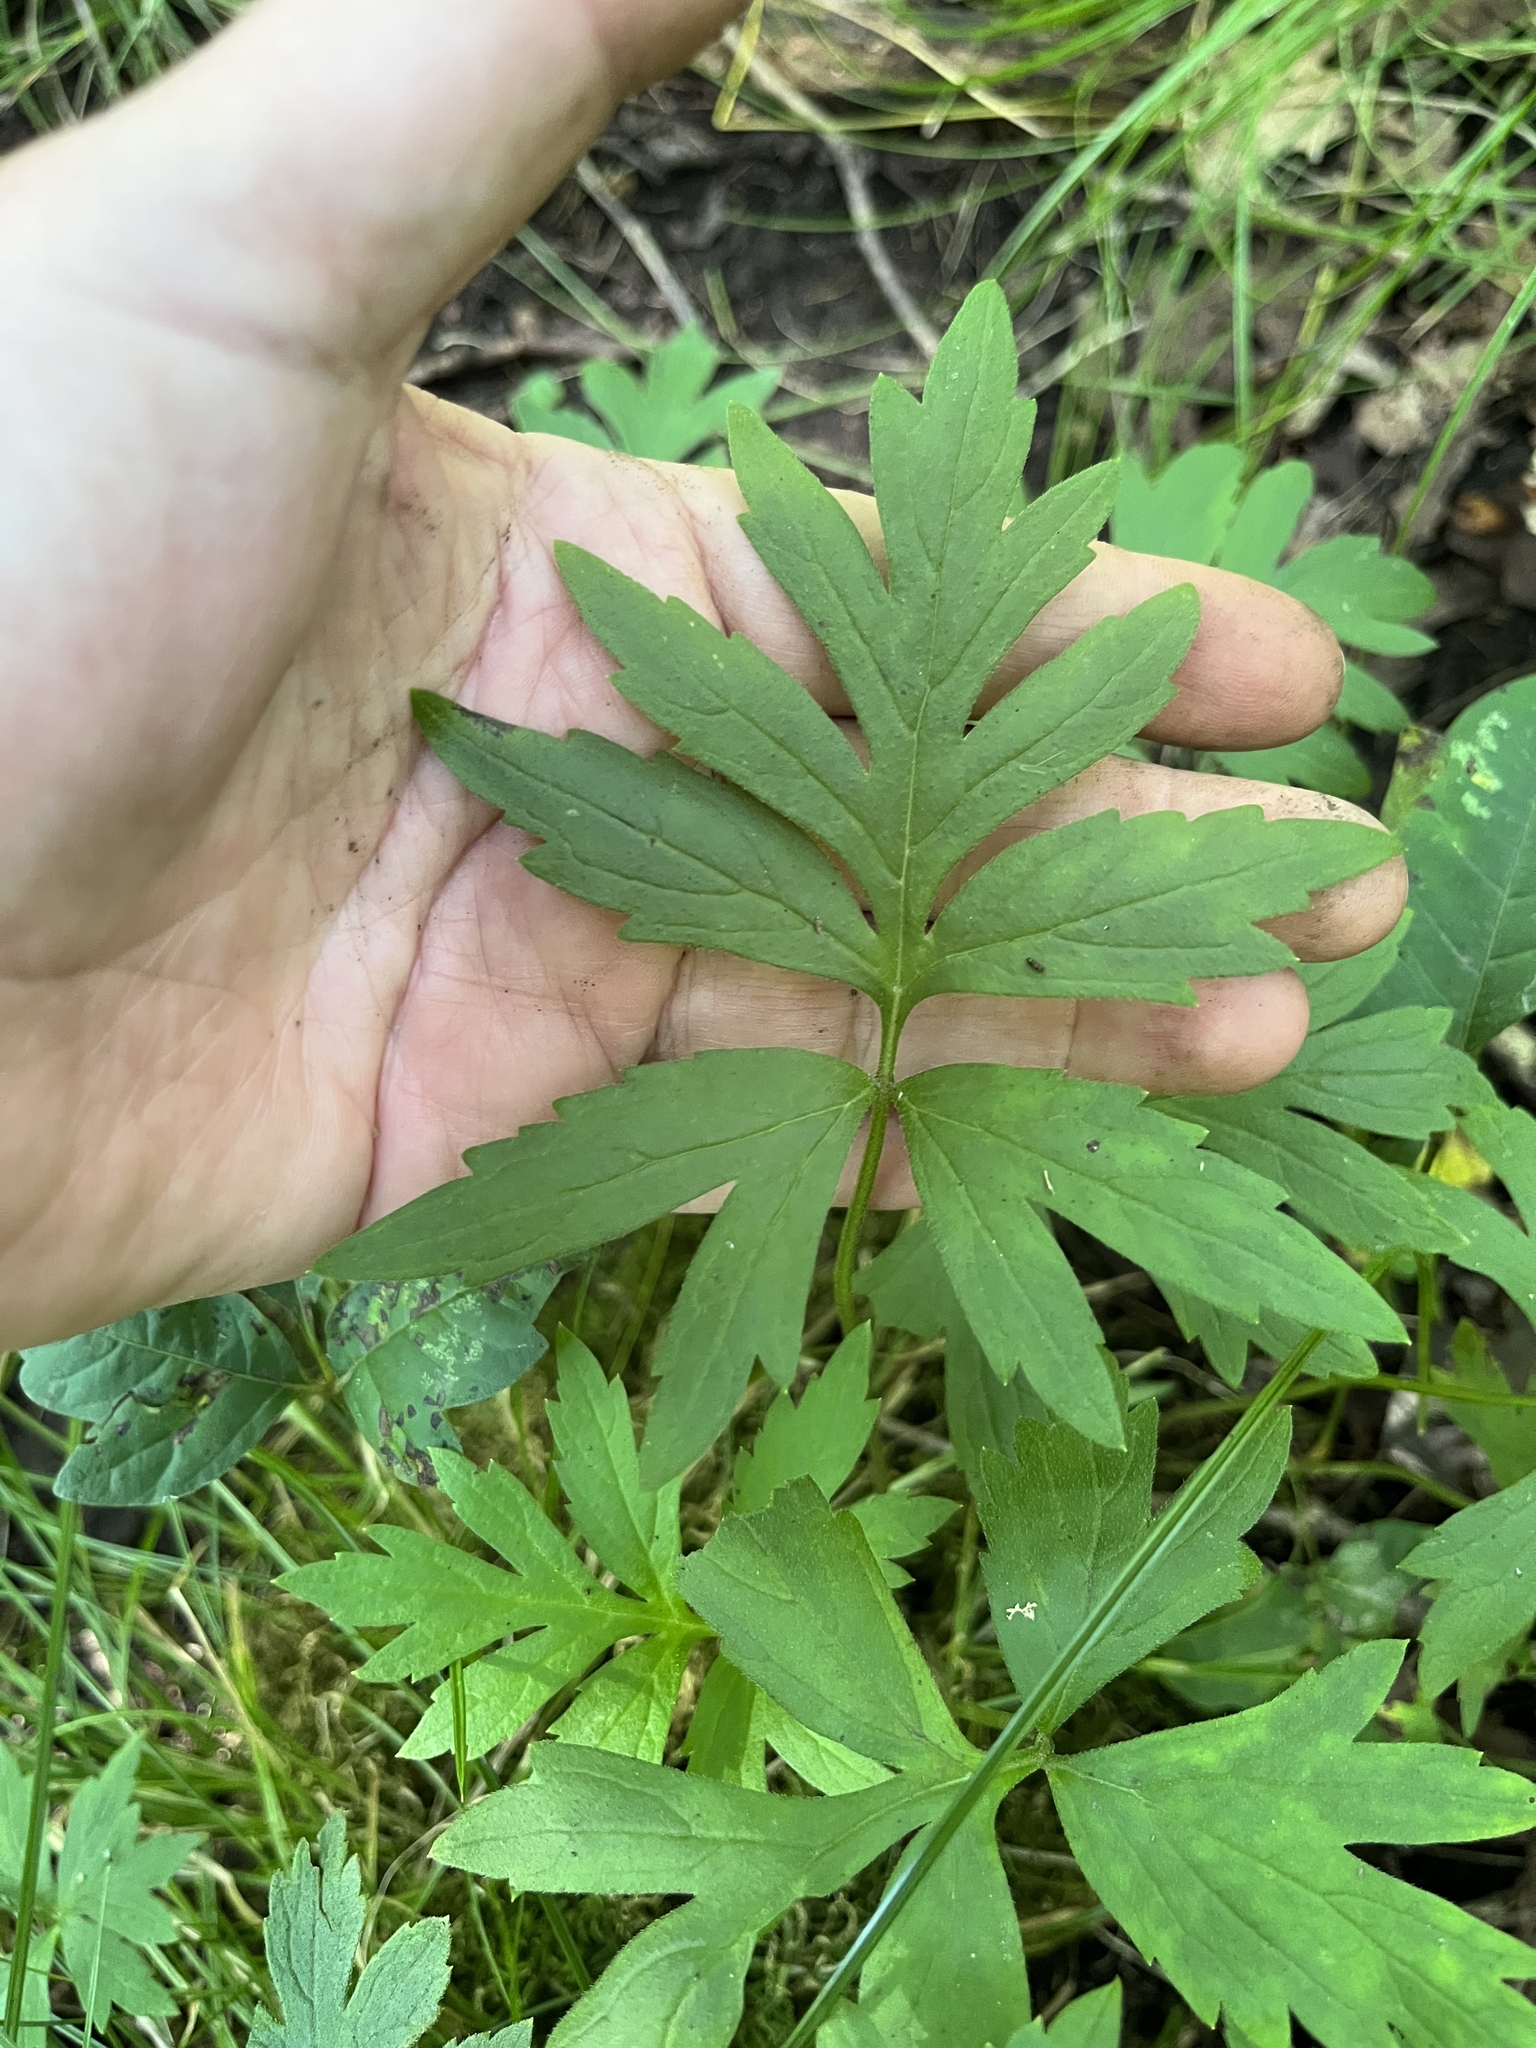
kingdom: Plantae
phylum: Tracheophyta
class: Magnoliopsida
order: Boraginales
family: Hydrophyllaceae
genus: Hydrophyllum
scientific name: Hydrophyllum virginianum
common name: Virginia waterleaf
